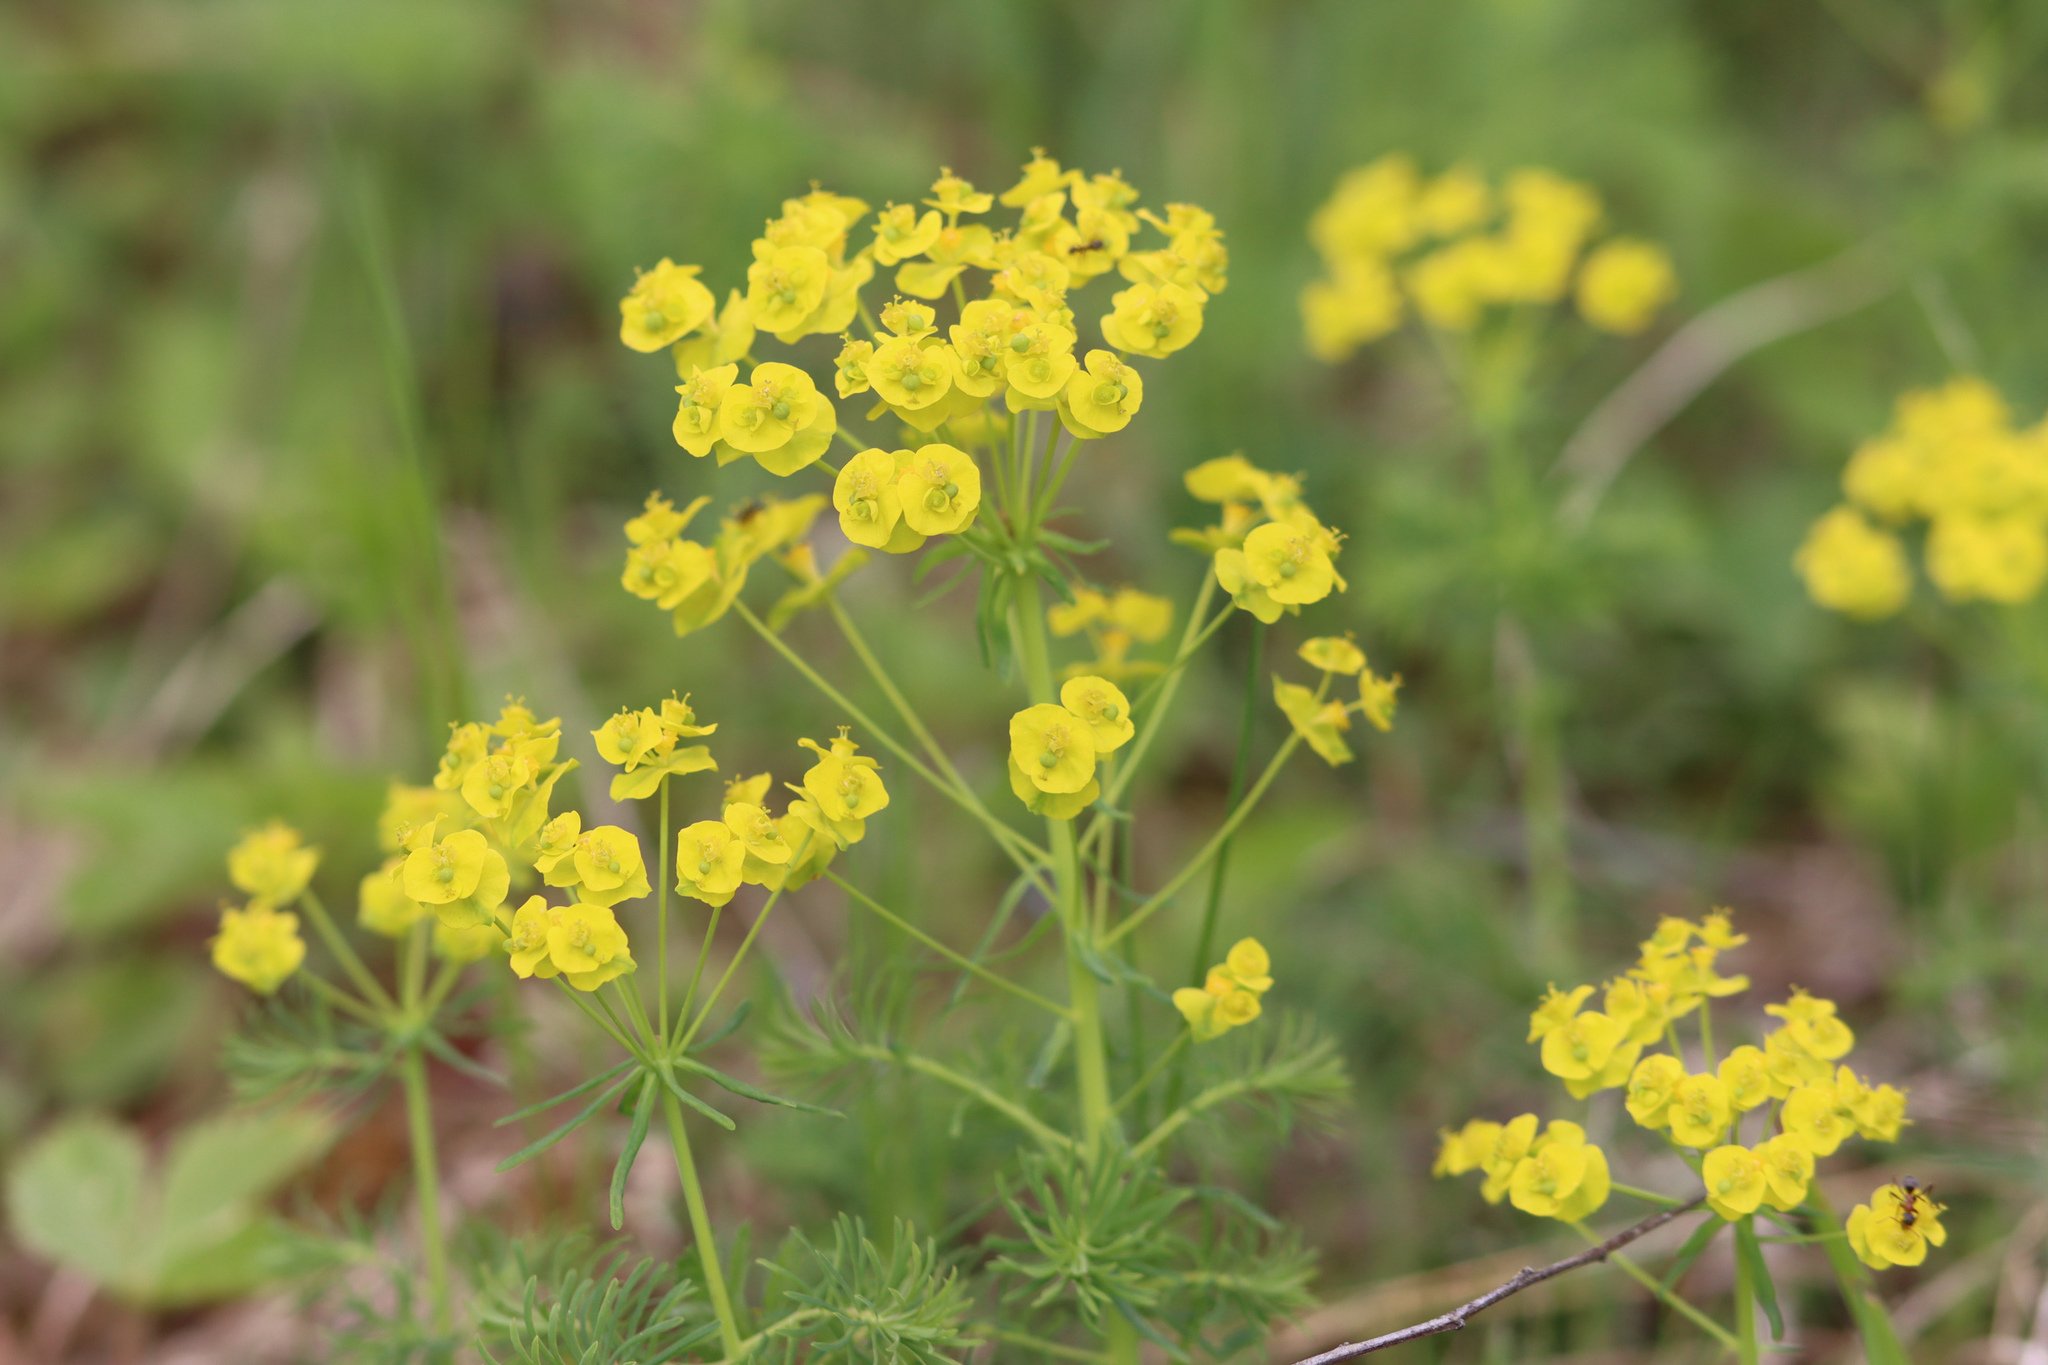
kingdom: Plantae
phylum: Tracheophyta
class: Magnoliopsida
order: Malpighiales
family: Euphorbiaceae
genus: Euphorbia
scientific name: Euphorbia cyparissias
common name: Cypress spurge
